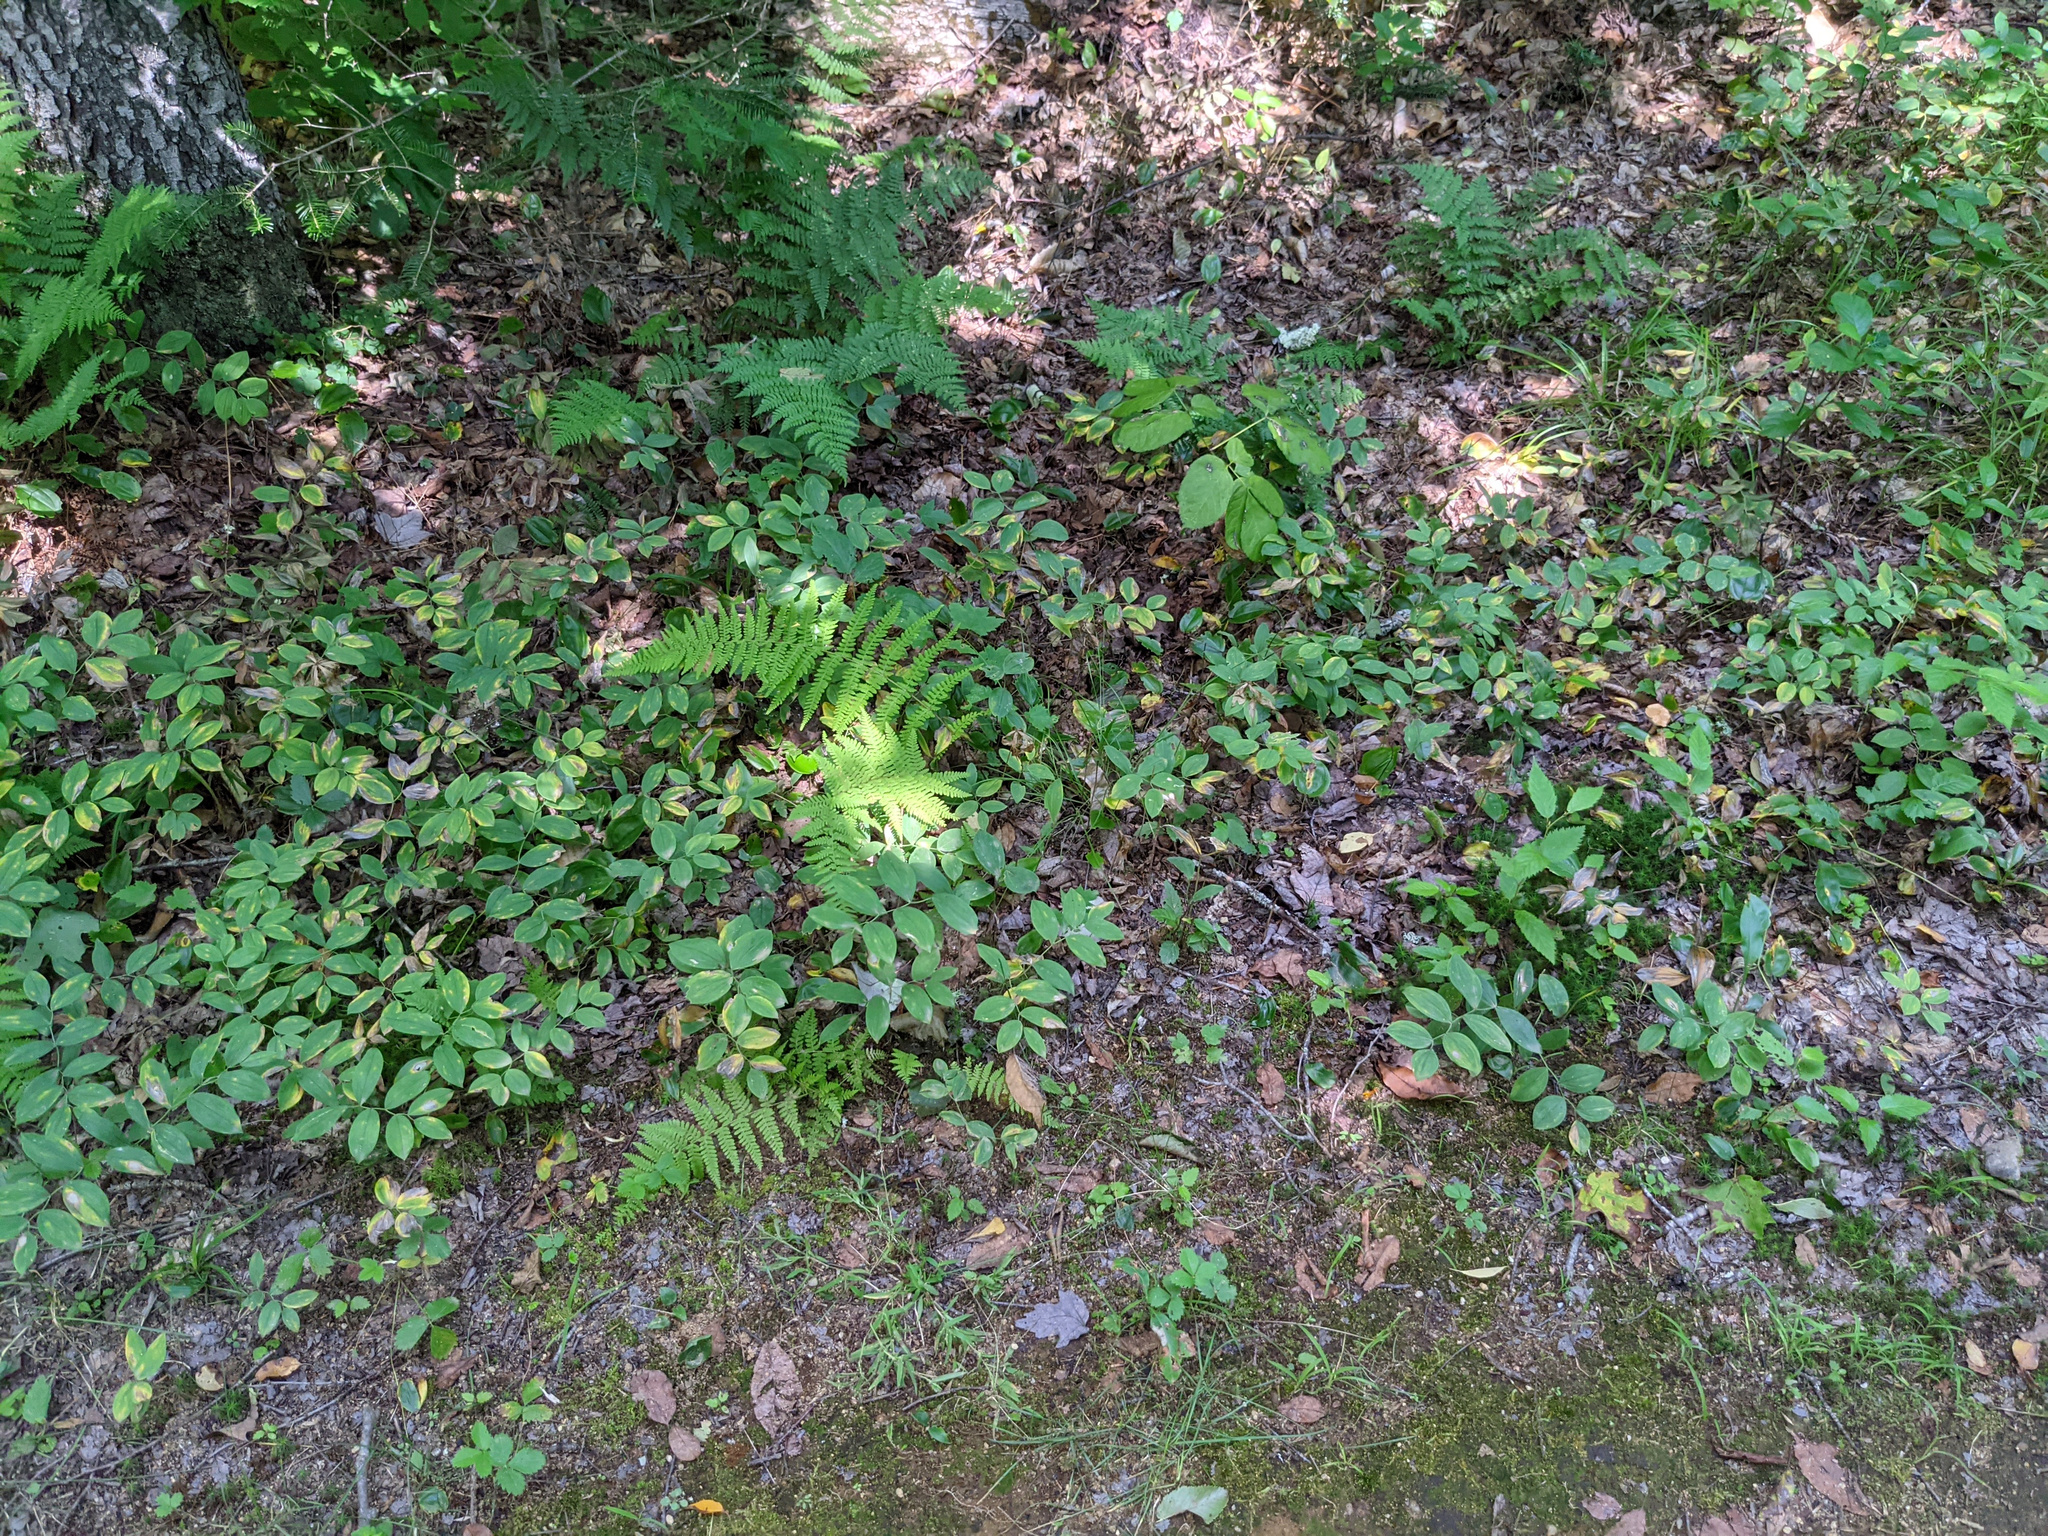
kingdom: Plantae
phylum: Tracheophyta
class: Liliopsida
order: Liliales
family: Colchicaceae
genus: Uvularia
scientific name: Uvularia sessilifolia
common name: Straw-lily
